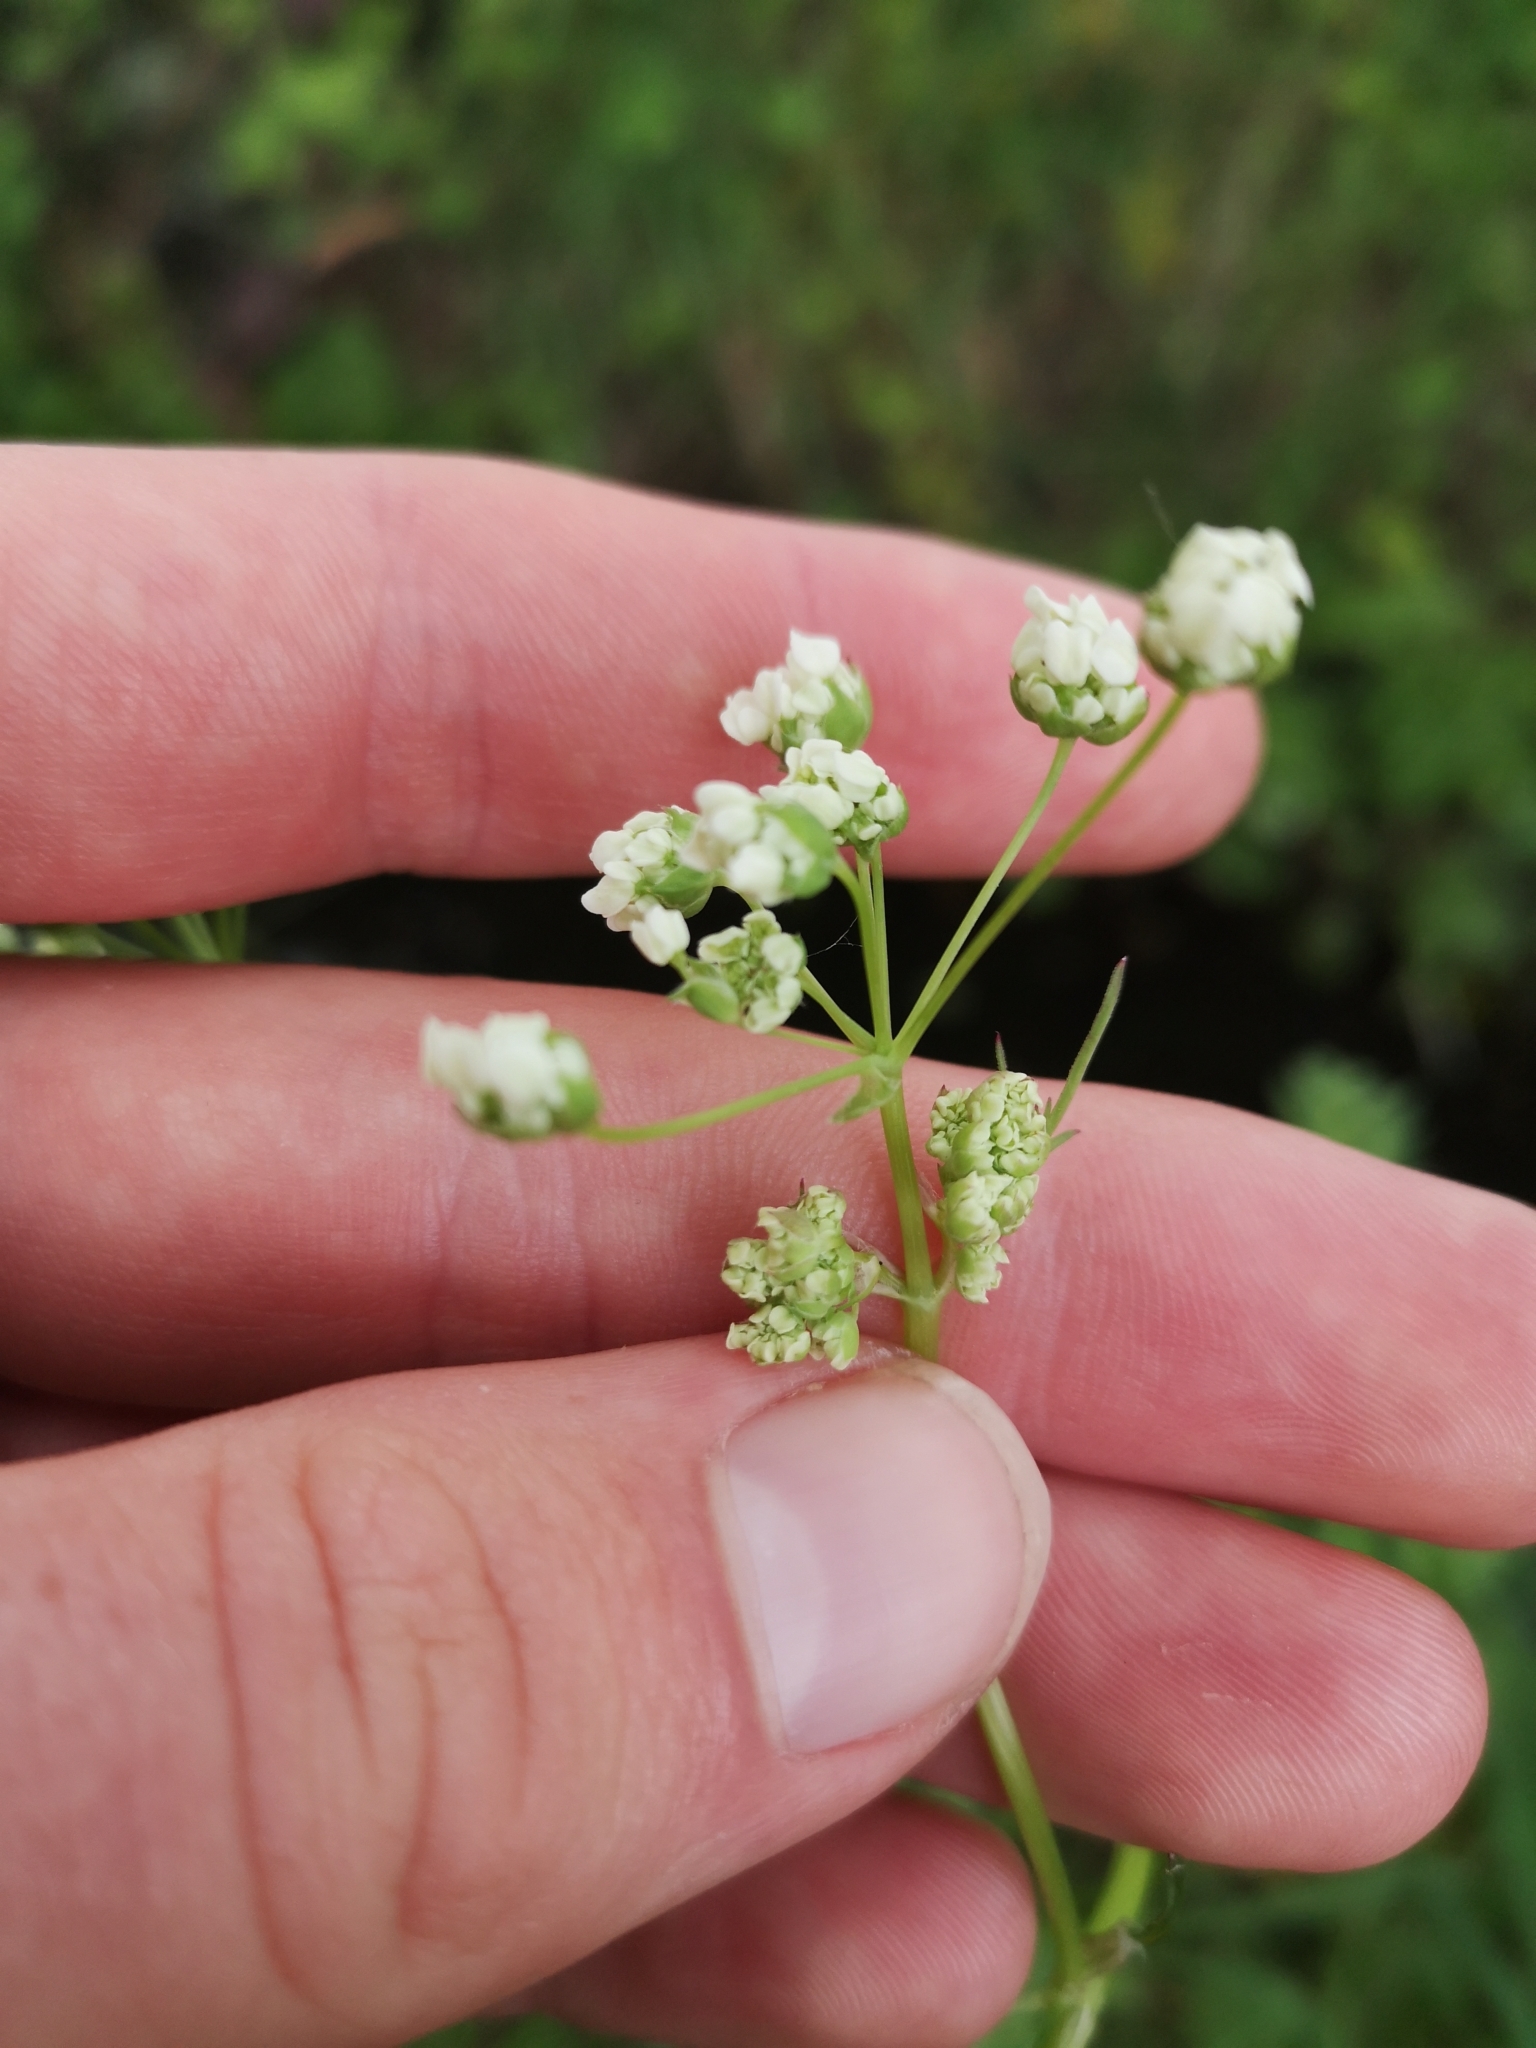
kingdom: Plantae
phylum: Tracheophyta
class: Magnoliopsida
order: Apiales
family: Apiaceae
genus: Anthriscus
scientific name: Anthriscus sylvestris
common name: Cow parsley
